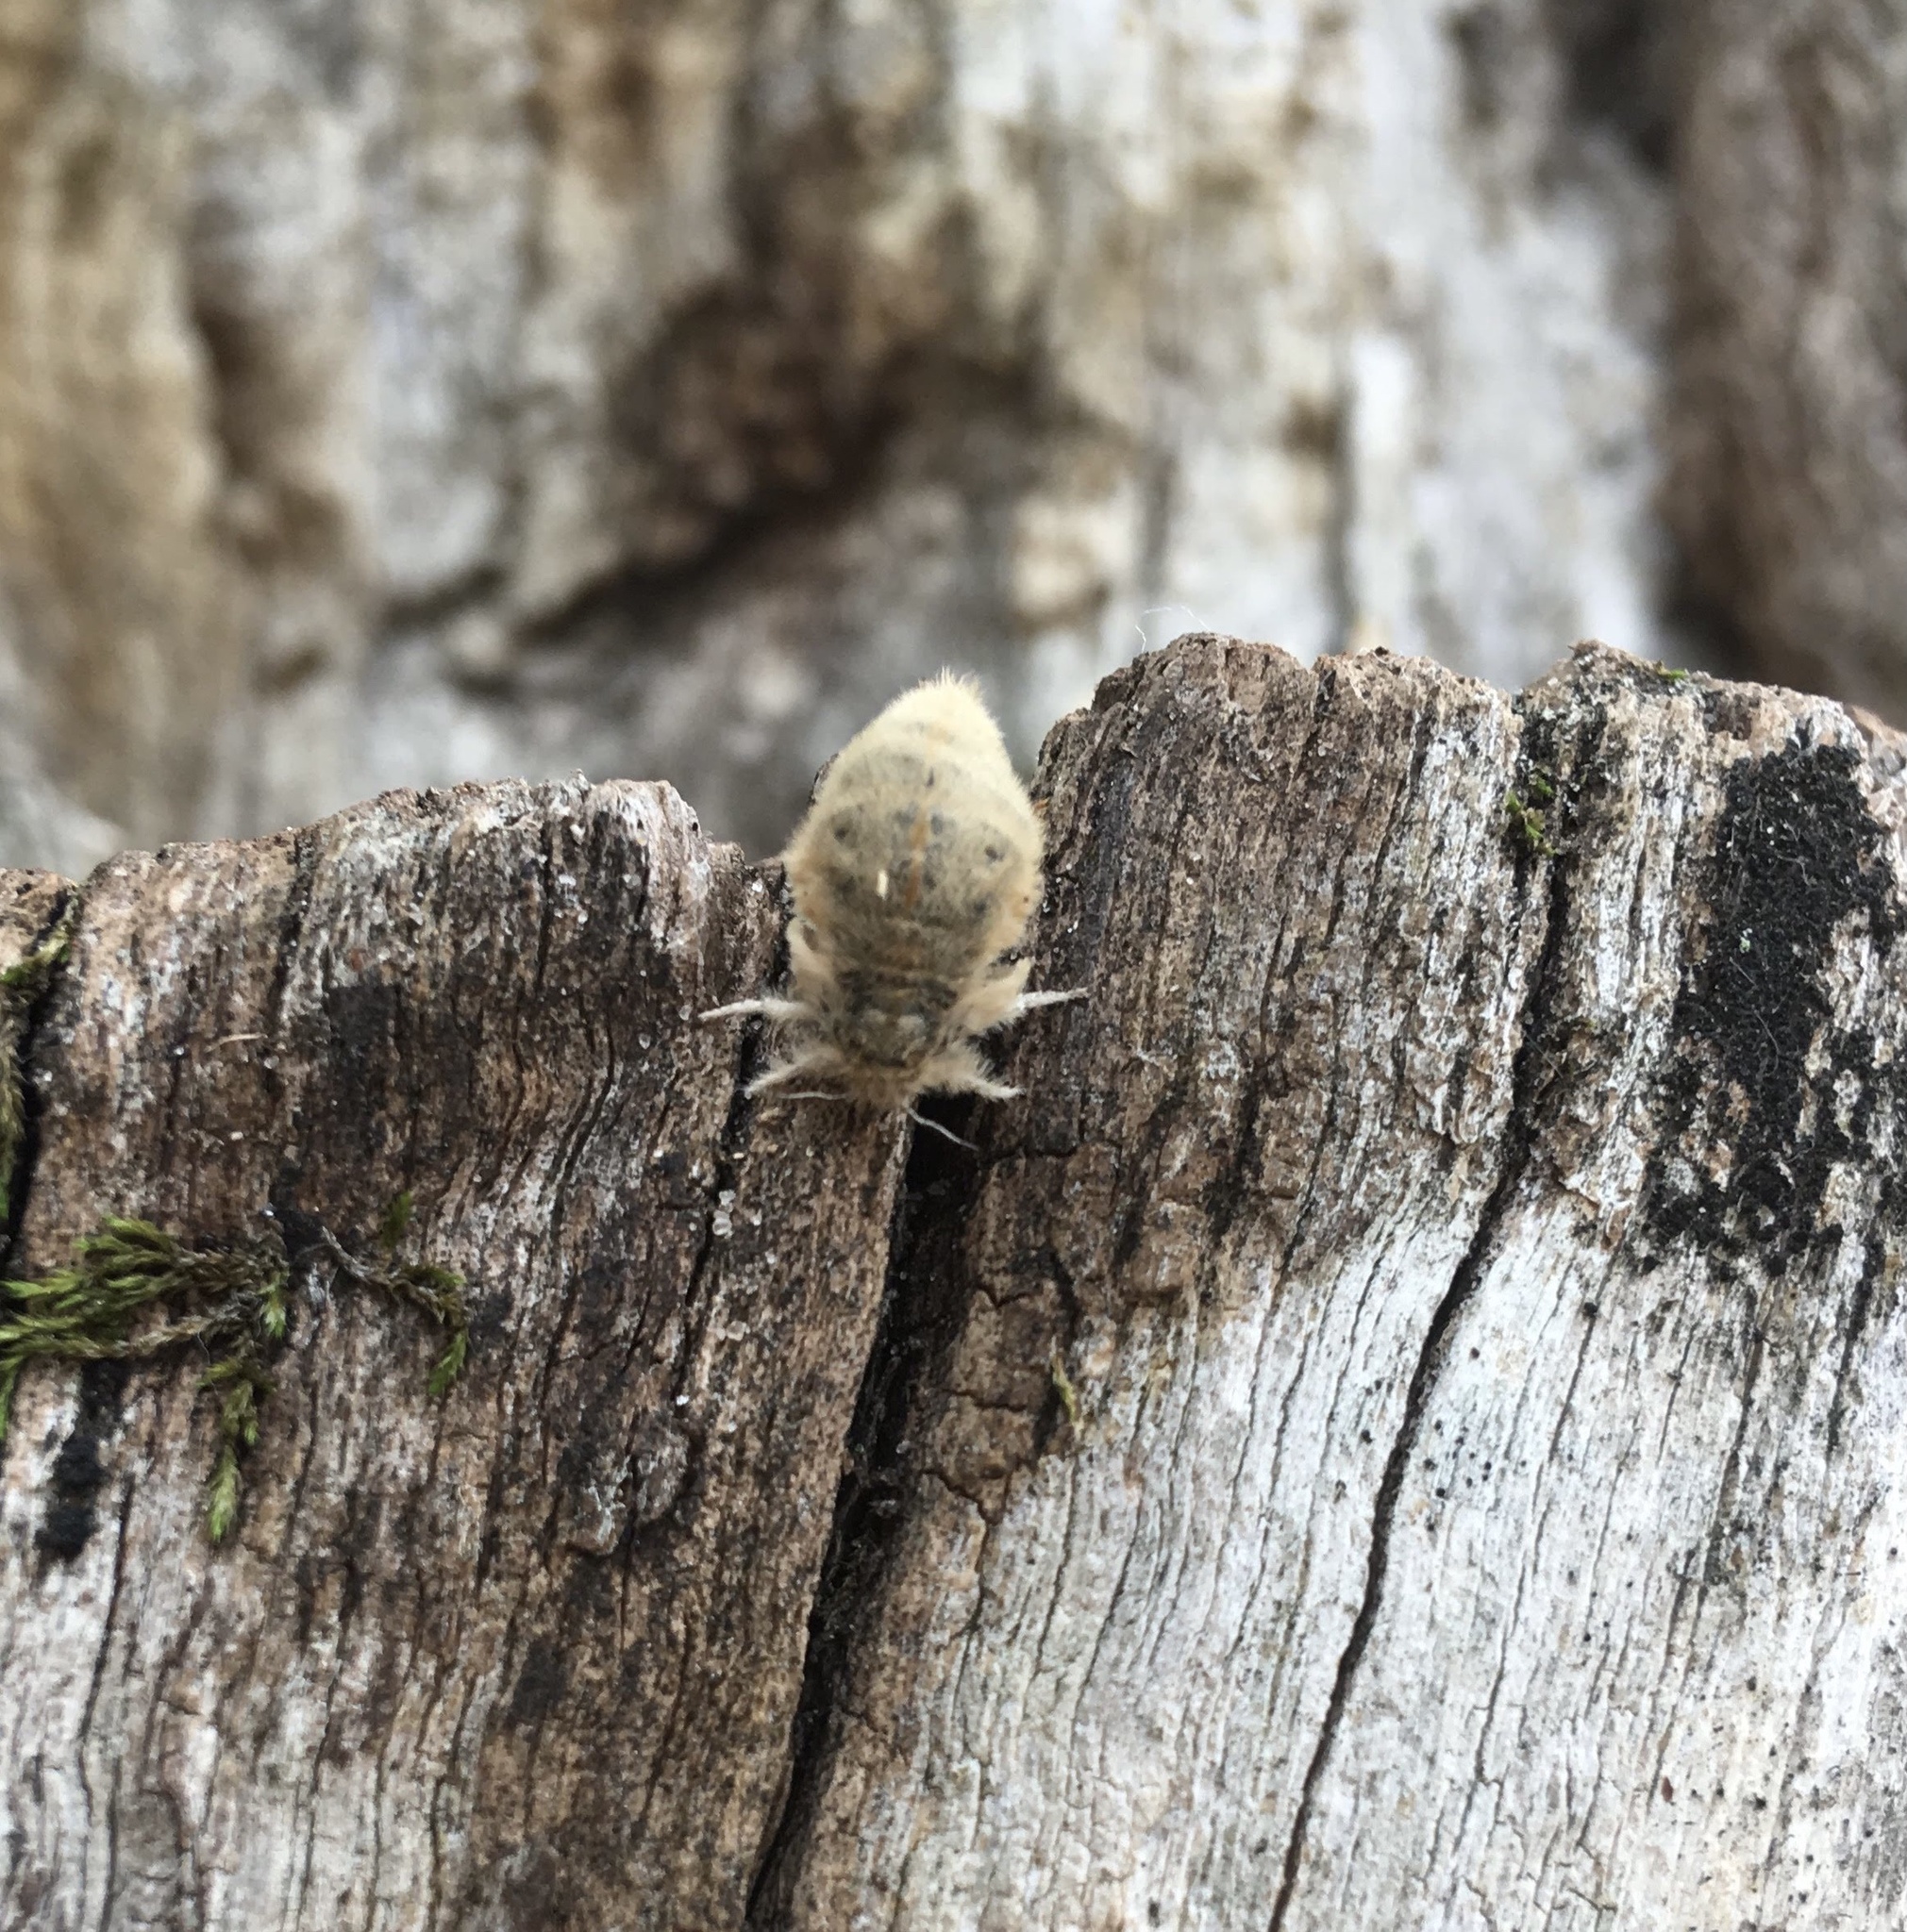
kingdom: Animalia
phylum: Arthropoda
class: Insecta
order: Lepidoptera
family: Erebidae
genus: Orgyia
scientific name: Orgyia antiqua
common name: Vapourer
